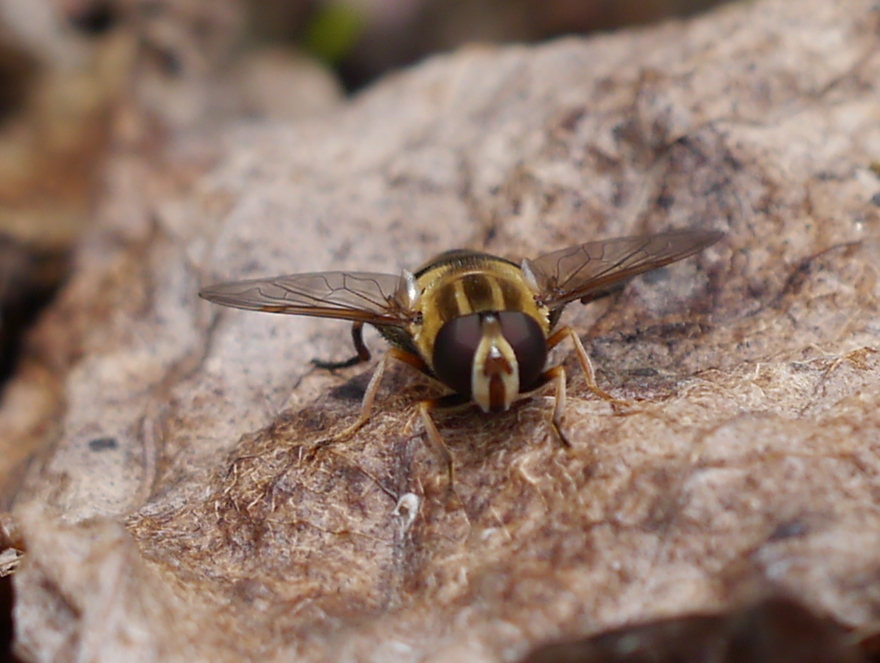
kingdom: Animalia
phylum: Arthropoda
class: Insecta
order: Diptera
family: Syrphidae
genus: Helophilus
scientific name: Helophilus fasciatus
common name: Narrow-headed marsh fly
